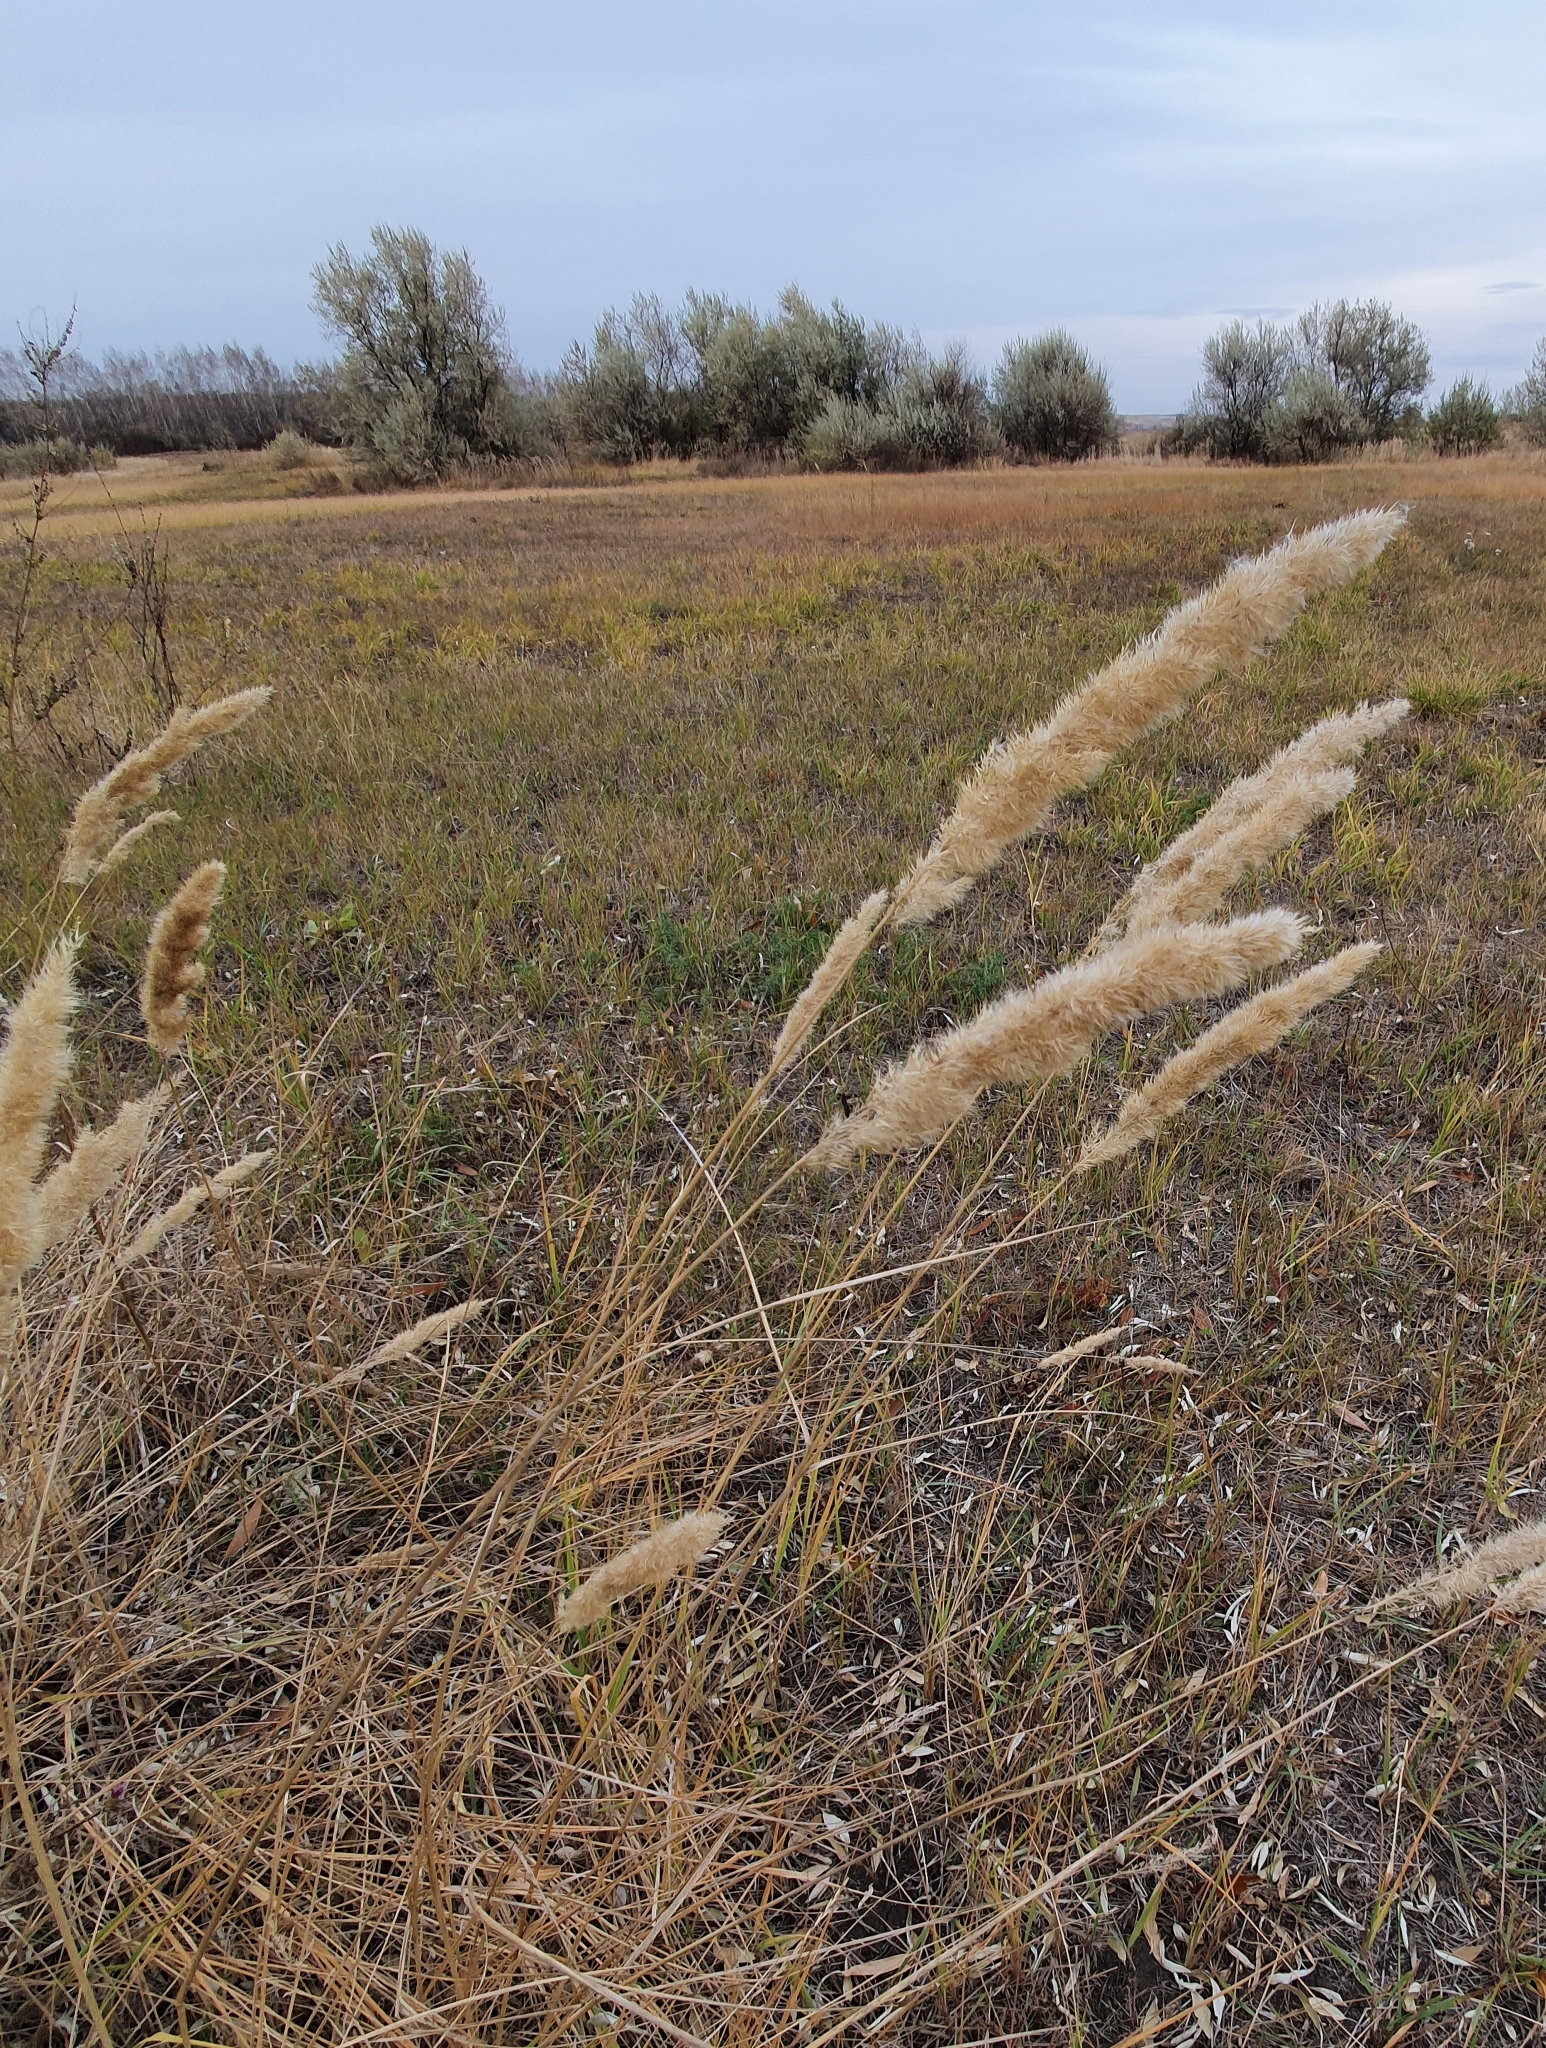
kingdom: Plantae
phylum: Tracheophyta
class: Liliopsida
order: Poales
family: Poaceae
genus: Calamagrostis
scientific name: Calamagrostis epigejos
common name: Wood small-reed
